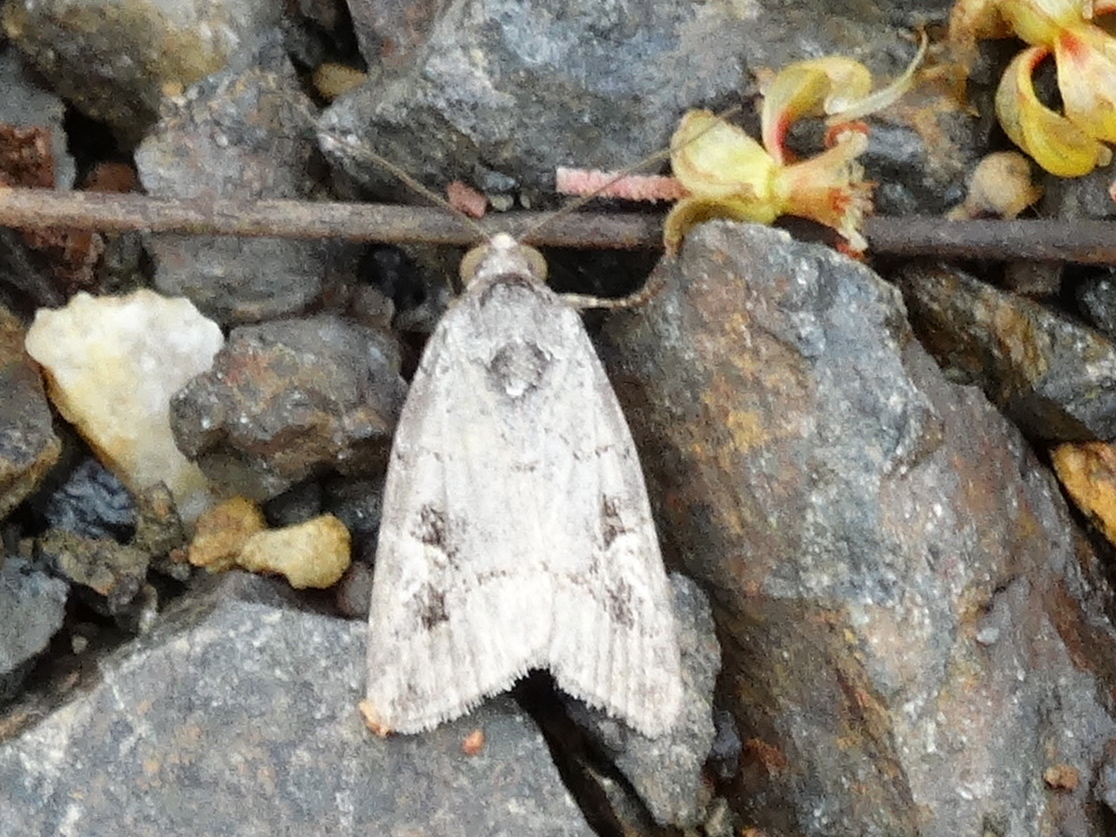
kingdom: Animalia
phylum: Arthropoda
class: Insecta
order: Lepidoptera
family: Noctuidae
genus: Metaponpneumata
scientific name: Metaponpneumata rogenhoferi
